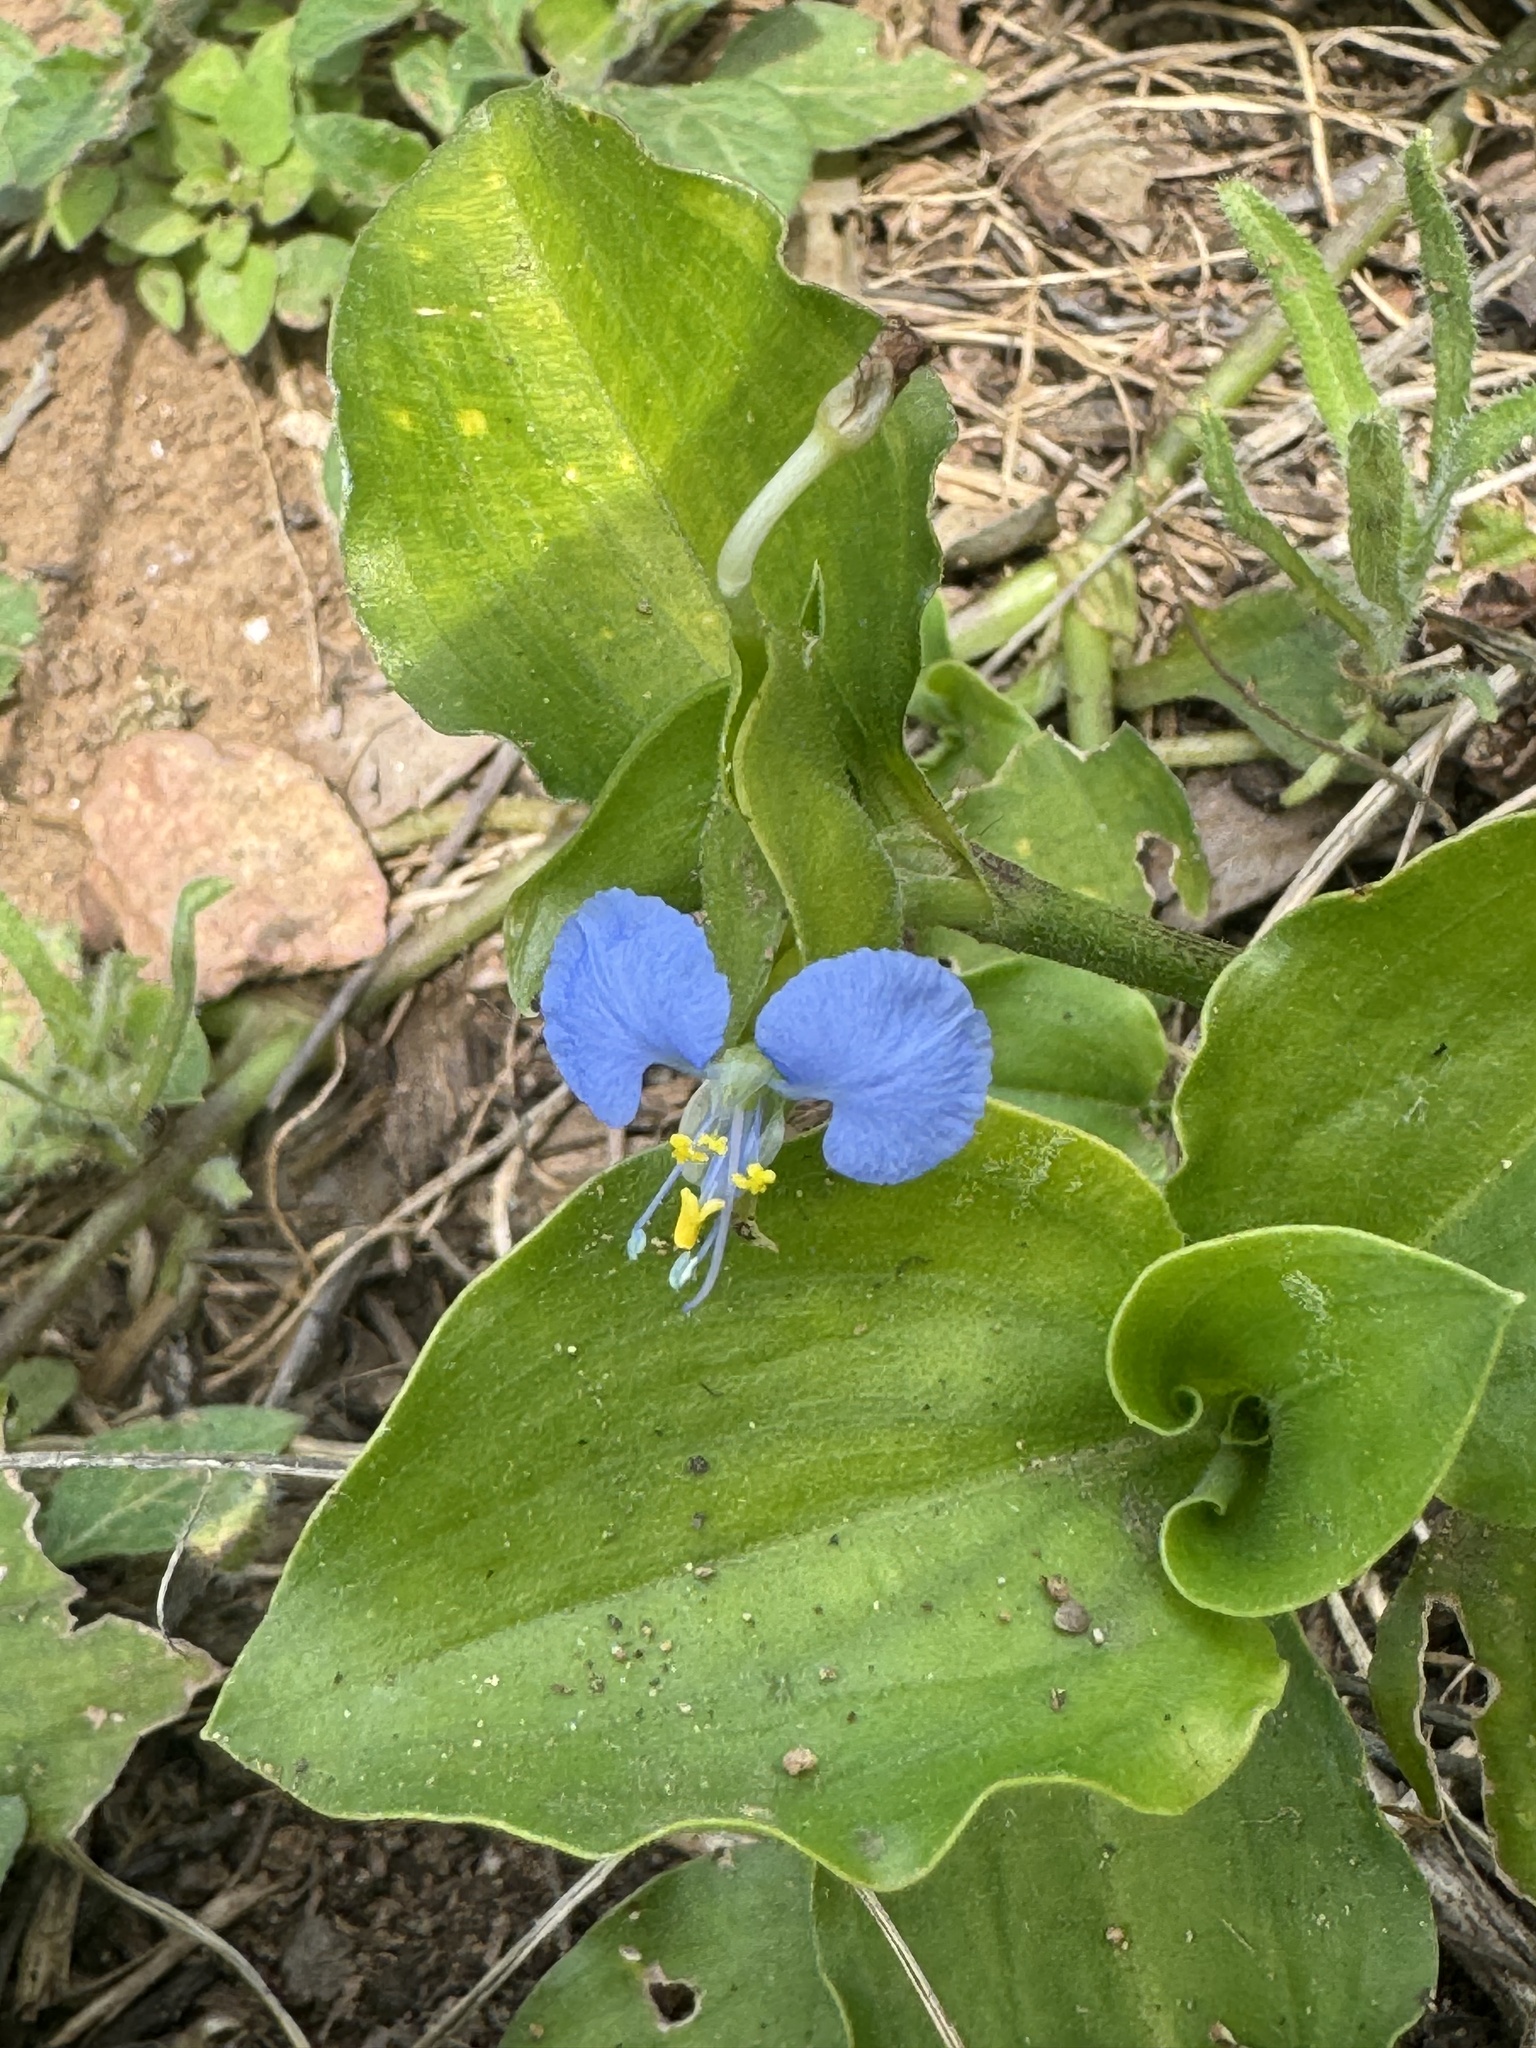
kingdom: Plantae
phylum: Tracheophyta
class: Liliopsida
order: Commelinales
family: Commelinaceae
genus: Commelina
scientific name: Commelina erecta
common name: Blousel blommetjie
